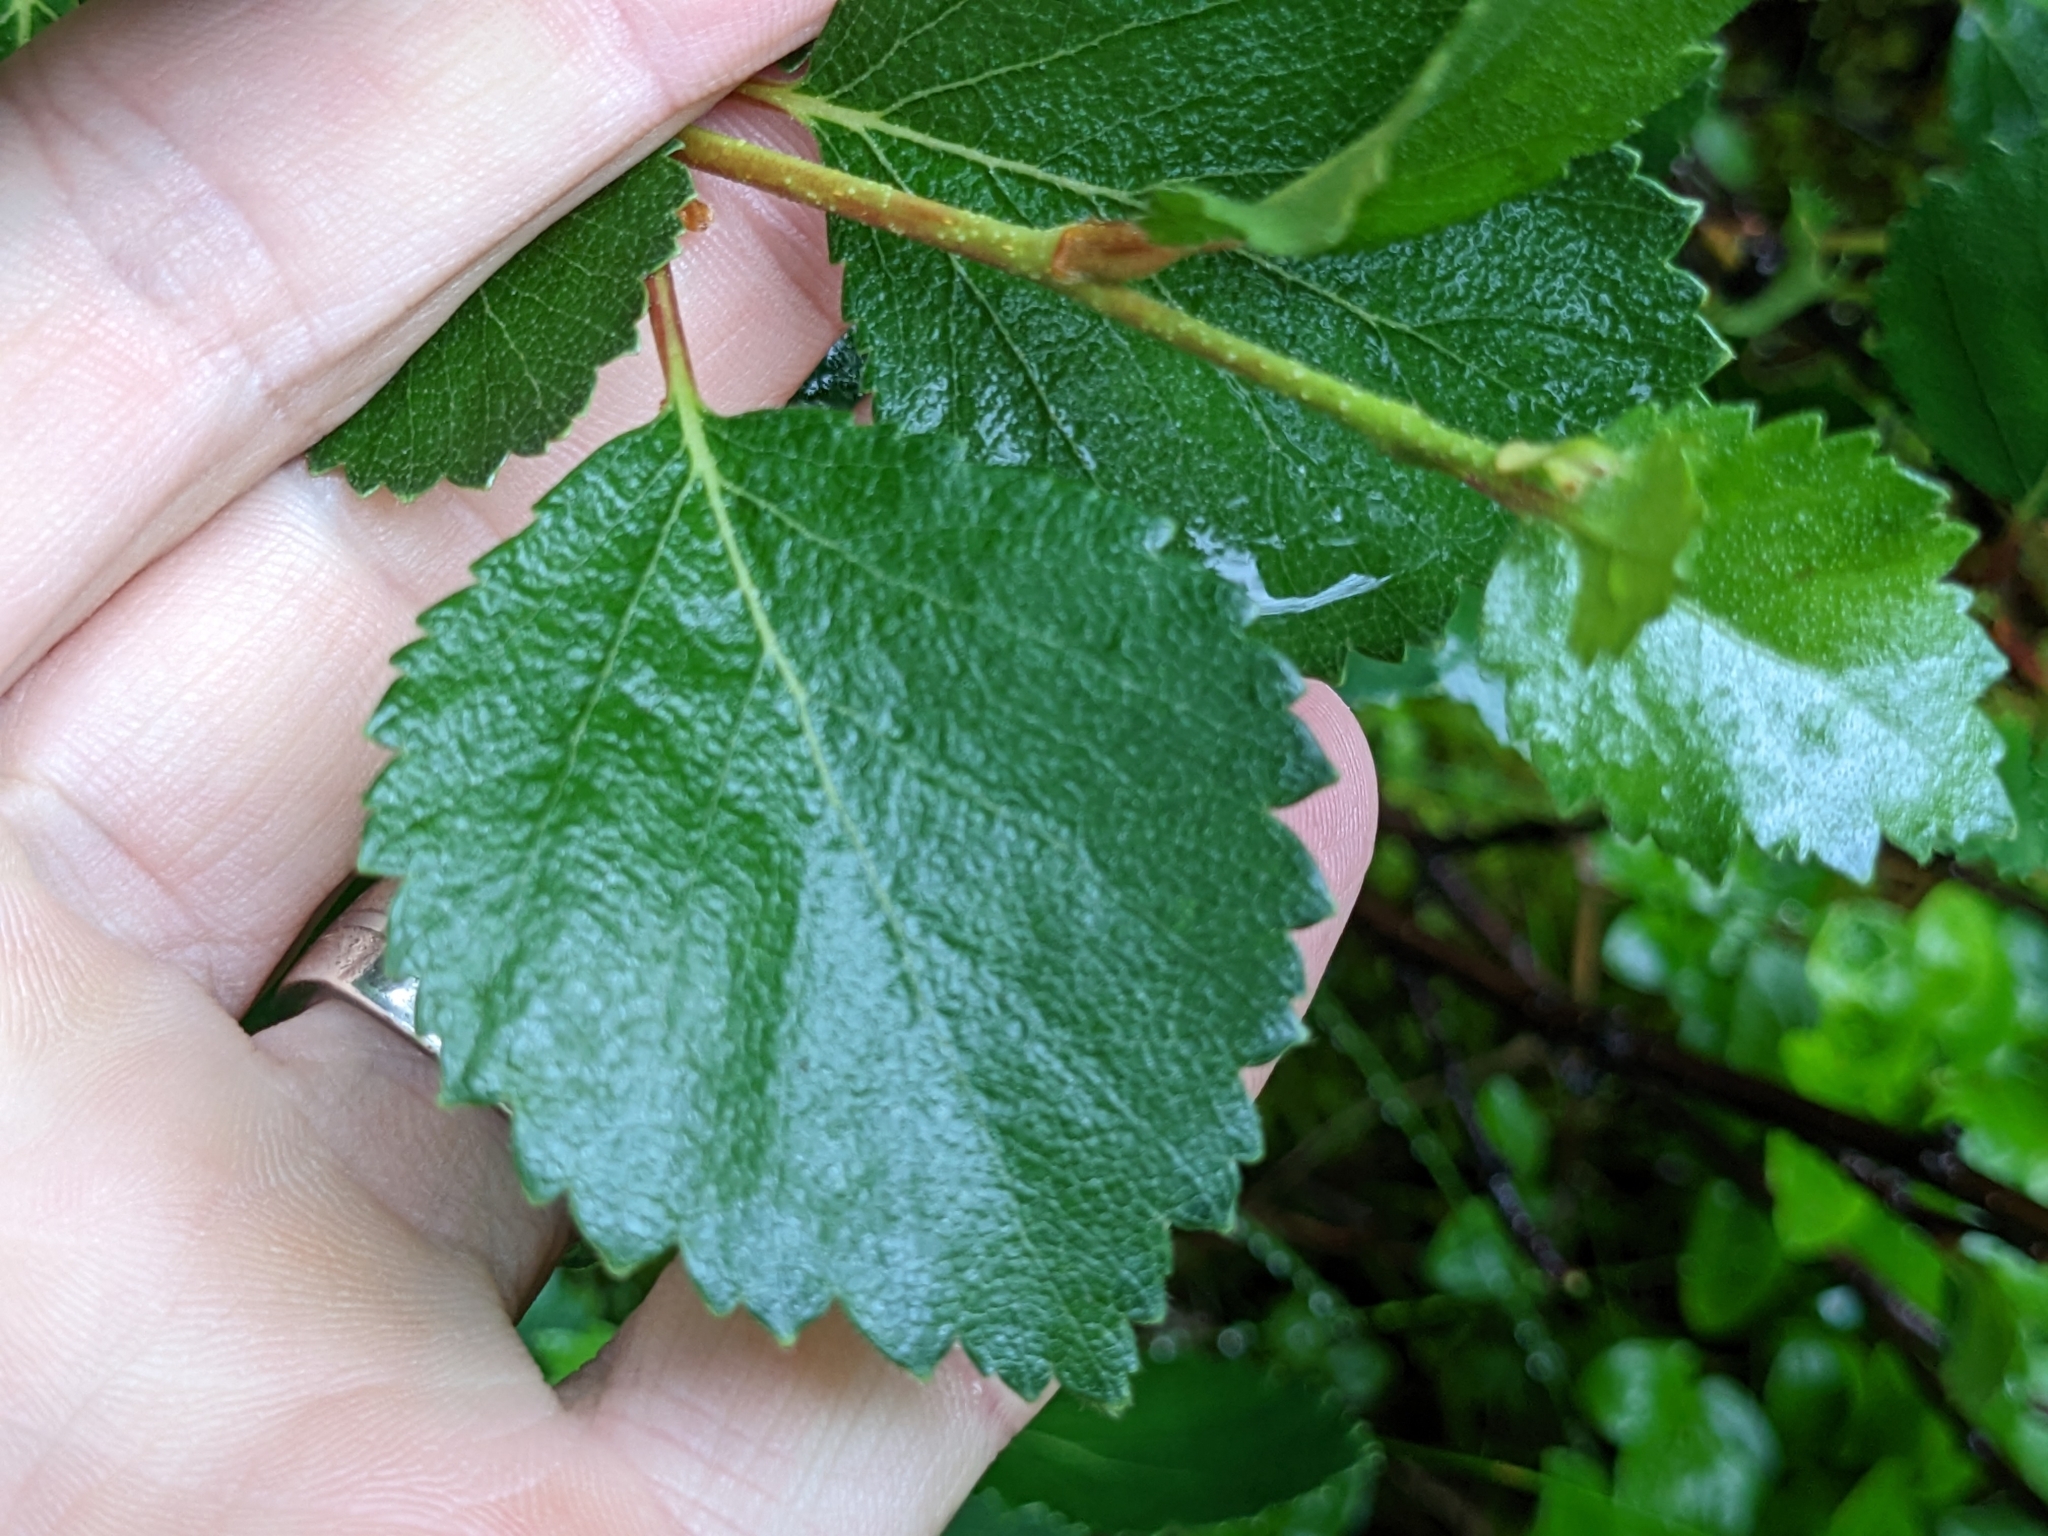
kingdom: Plantae
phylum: Tracheophyta
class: Magnoliopsida
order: Fagales
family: Betulaceae
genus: Betula
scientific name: Betula pubescens
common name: Downy birch
